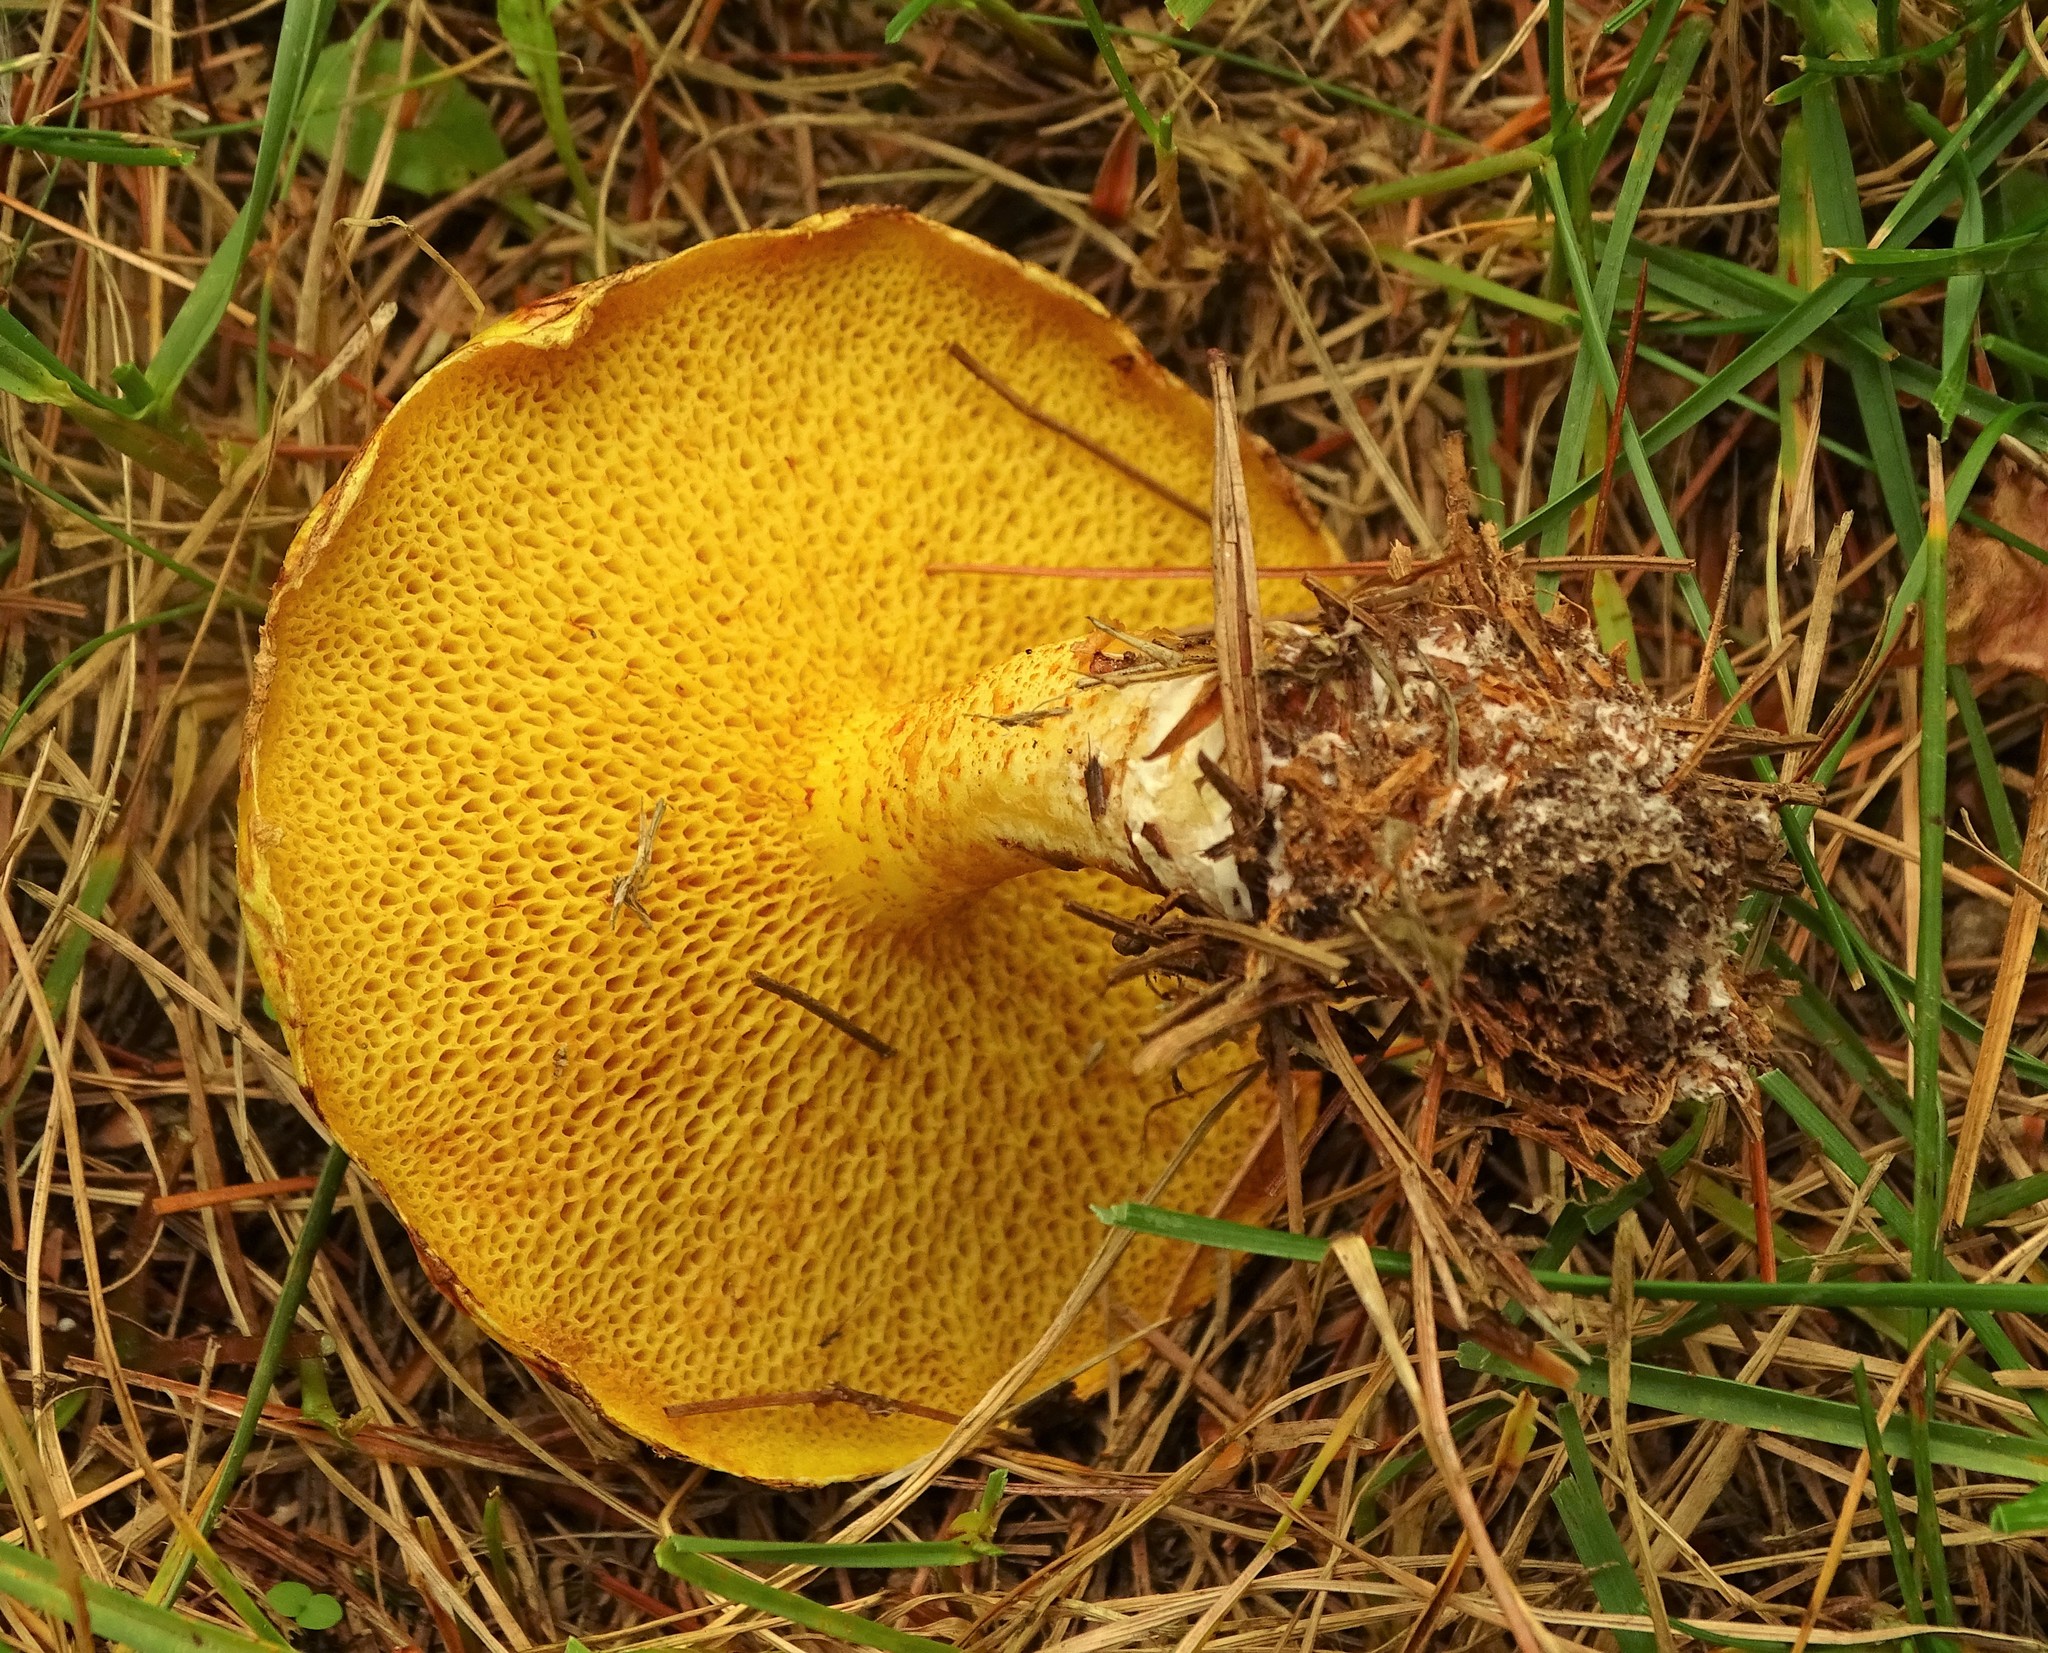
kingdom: Fungi
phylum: Basidiomycota
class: Agaricomycetes
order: Boletales
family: Suillaceae
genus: Suillus
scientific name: Suillus americanus
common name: Chicken fat mushroom
